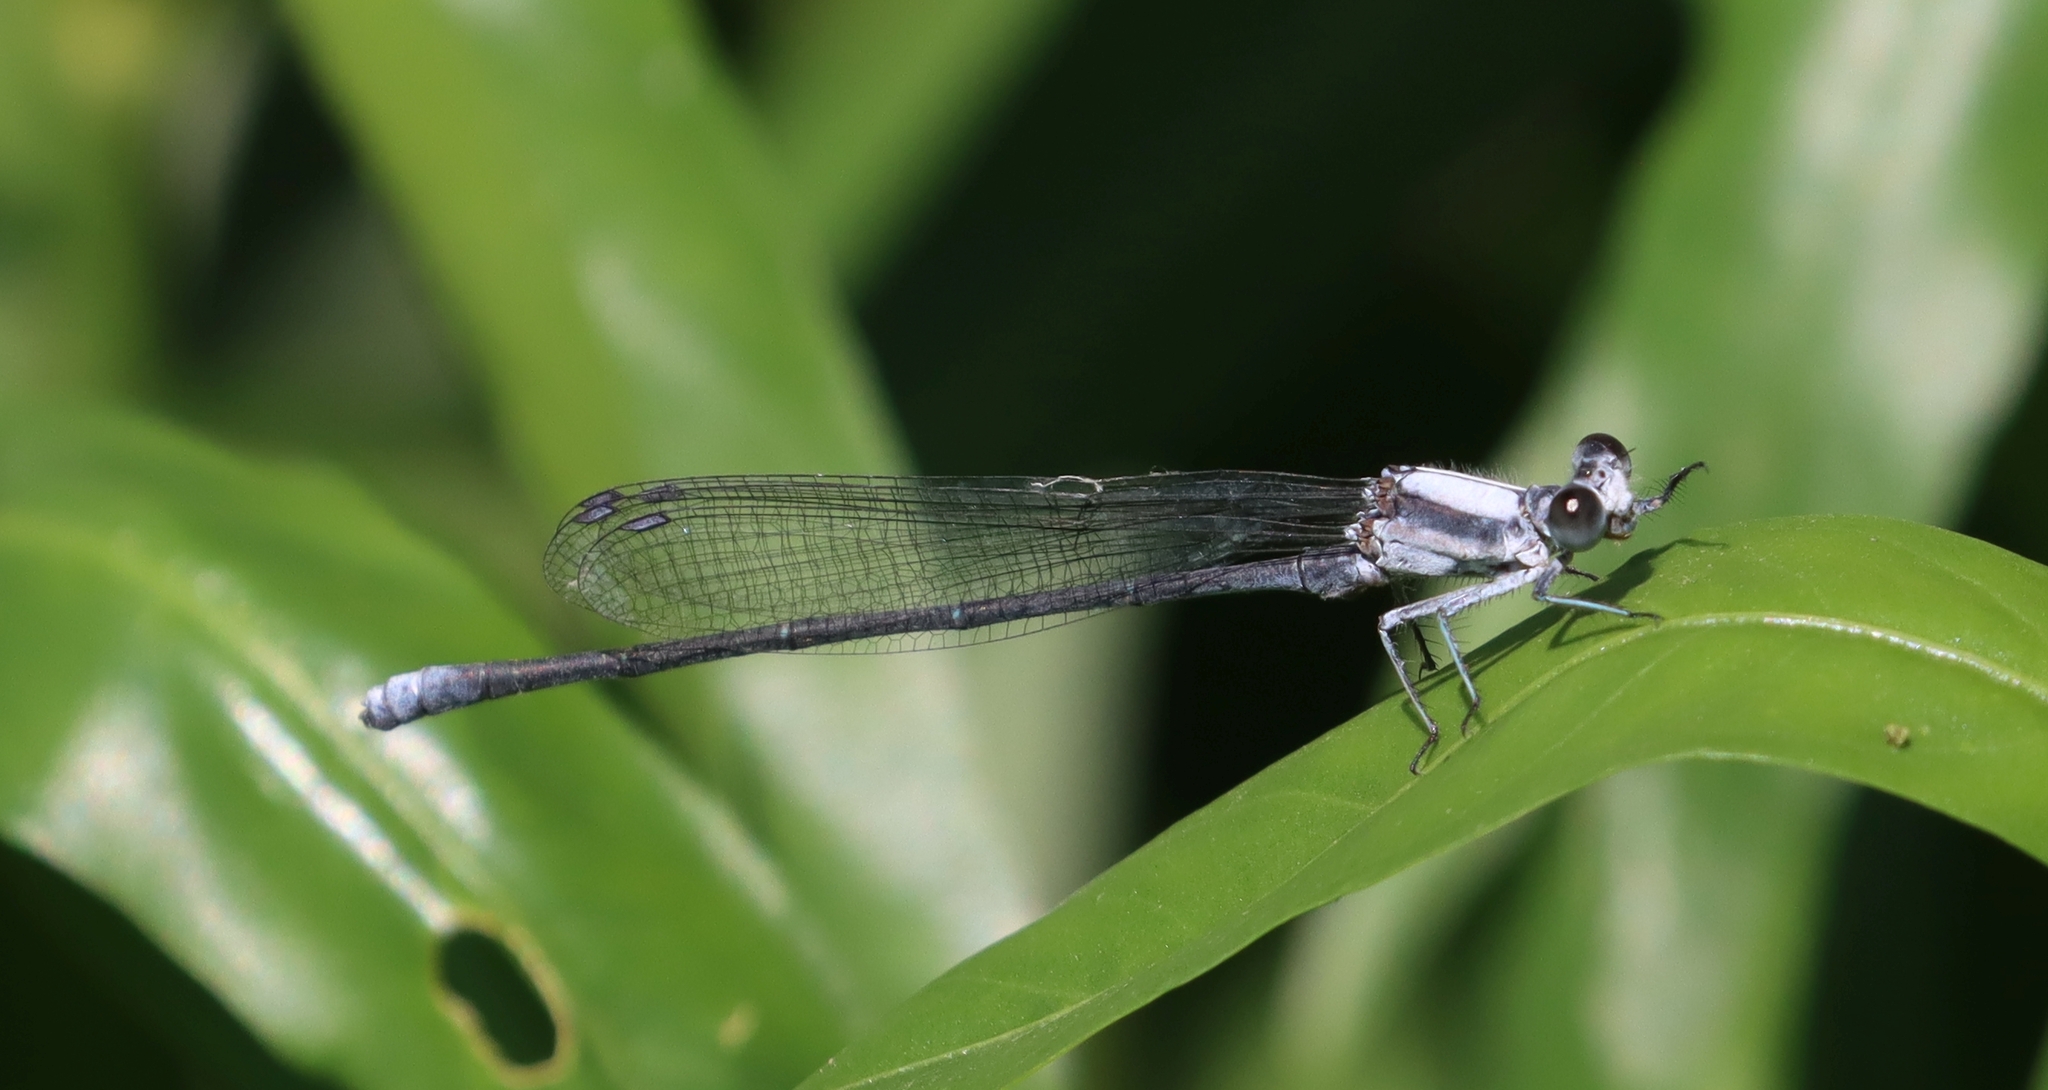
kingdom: Animalia
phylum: Arthropoda
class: Insecta
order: Odonata
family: Coenagrionidae
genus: Argia
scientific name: Argia moesta
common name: Powdered dancer
